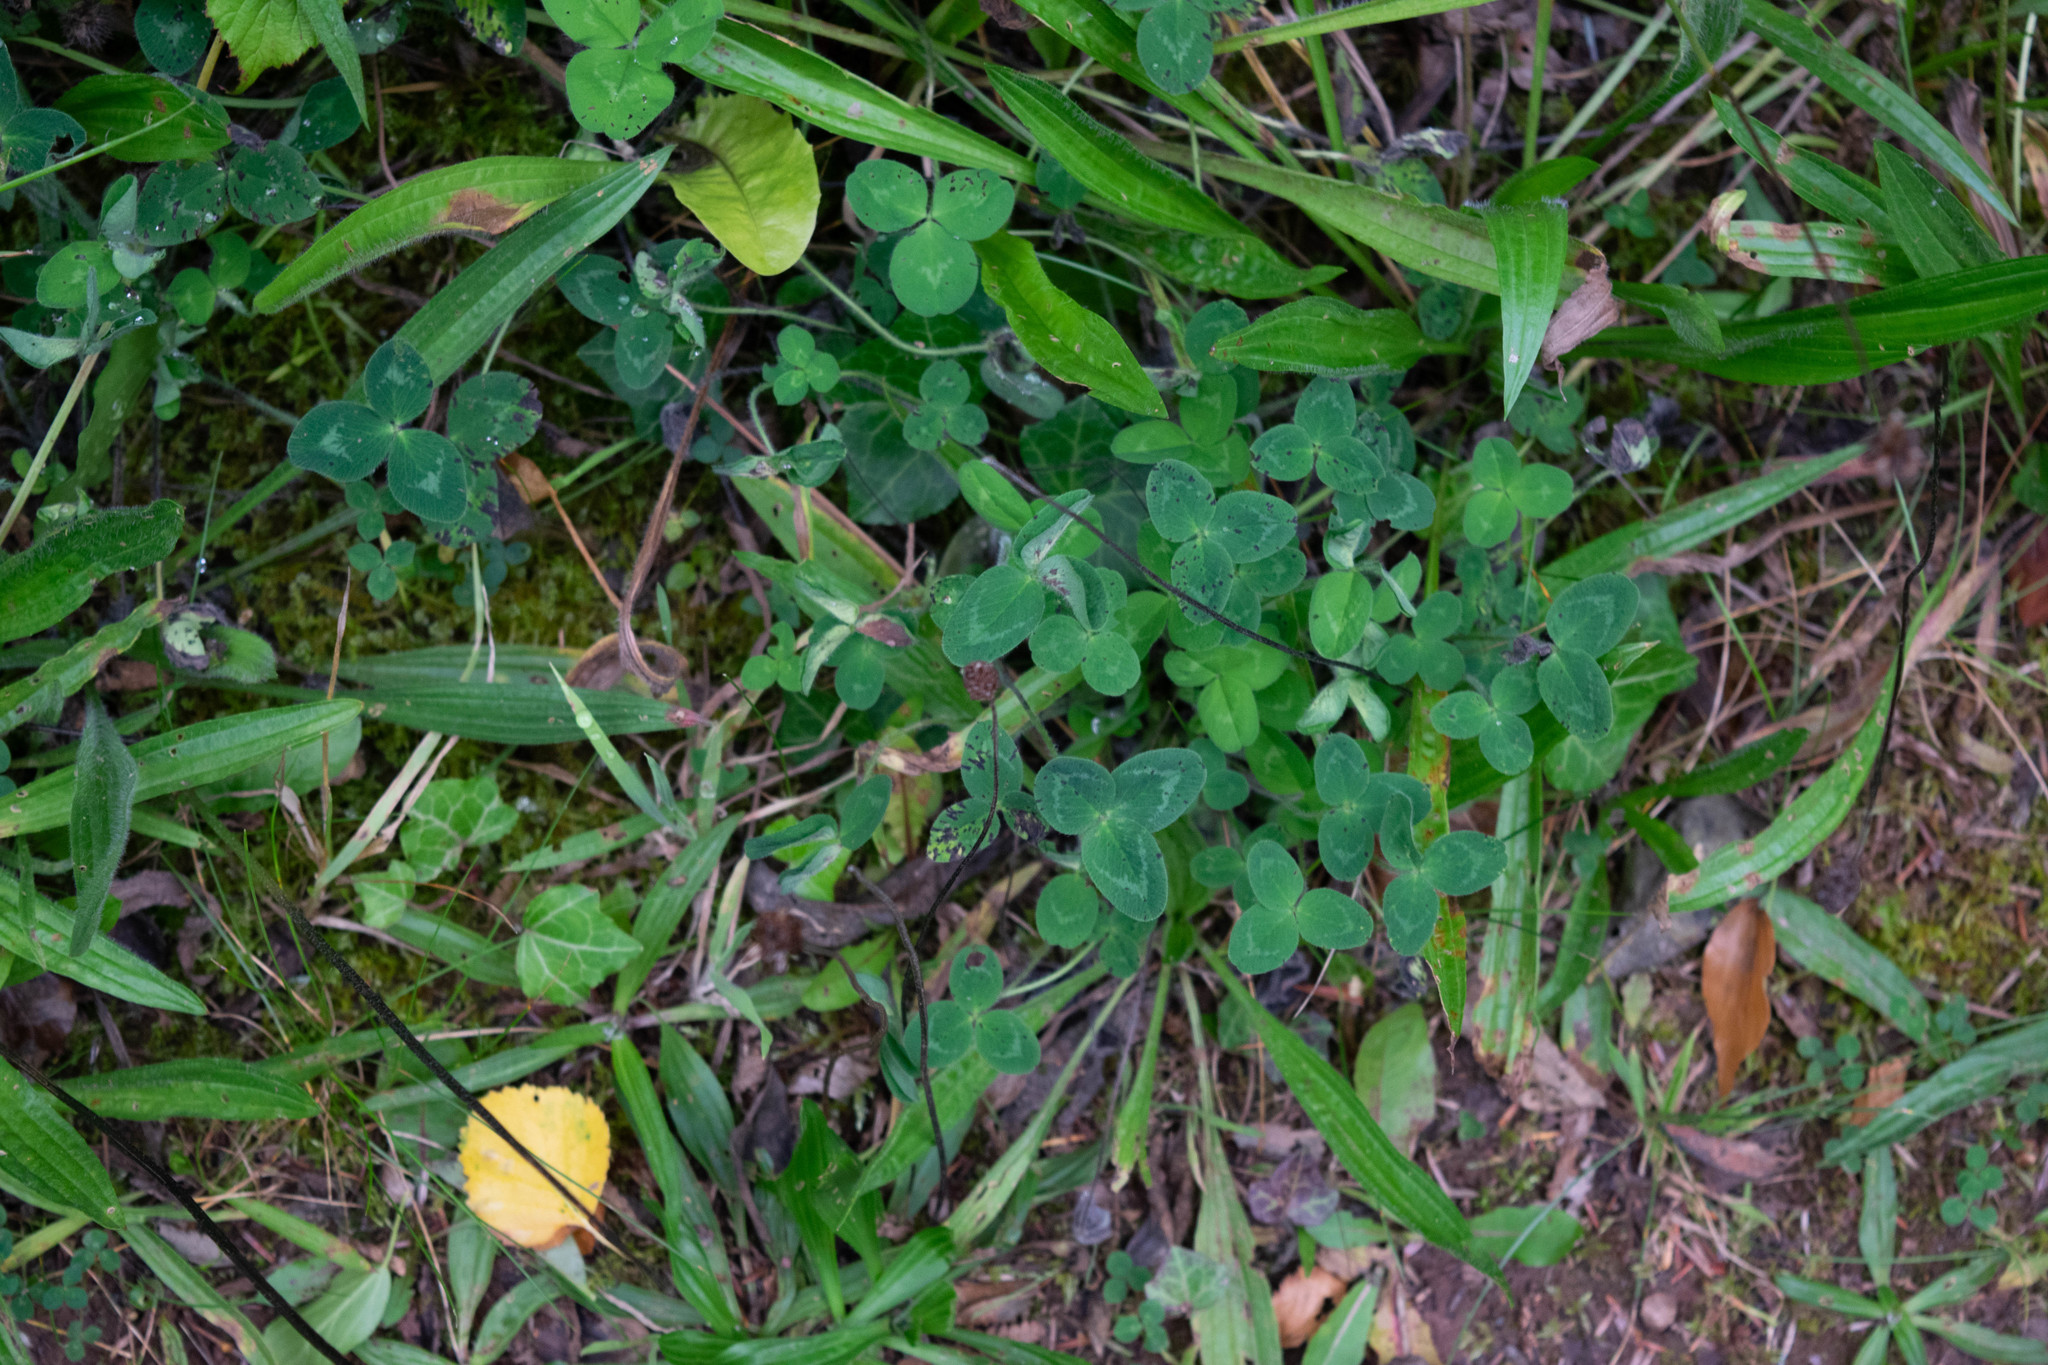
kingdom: Plantae
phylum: Tracheophyta
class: Magnoliopsida
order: Fabales
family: Fabaceae
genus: Trifolium
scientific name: Trifolium pratense
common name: Red clover
